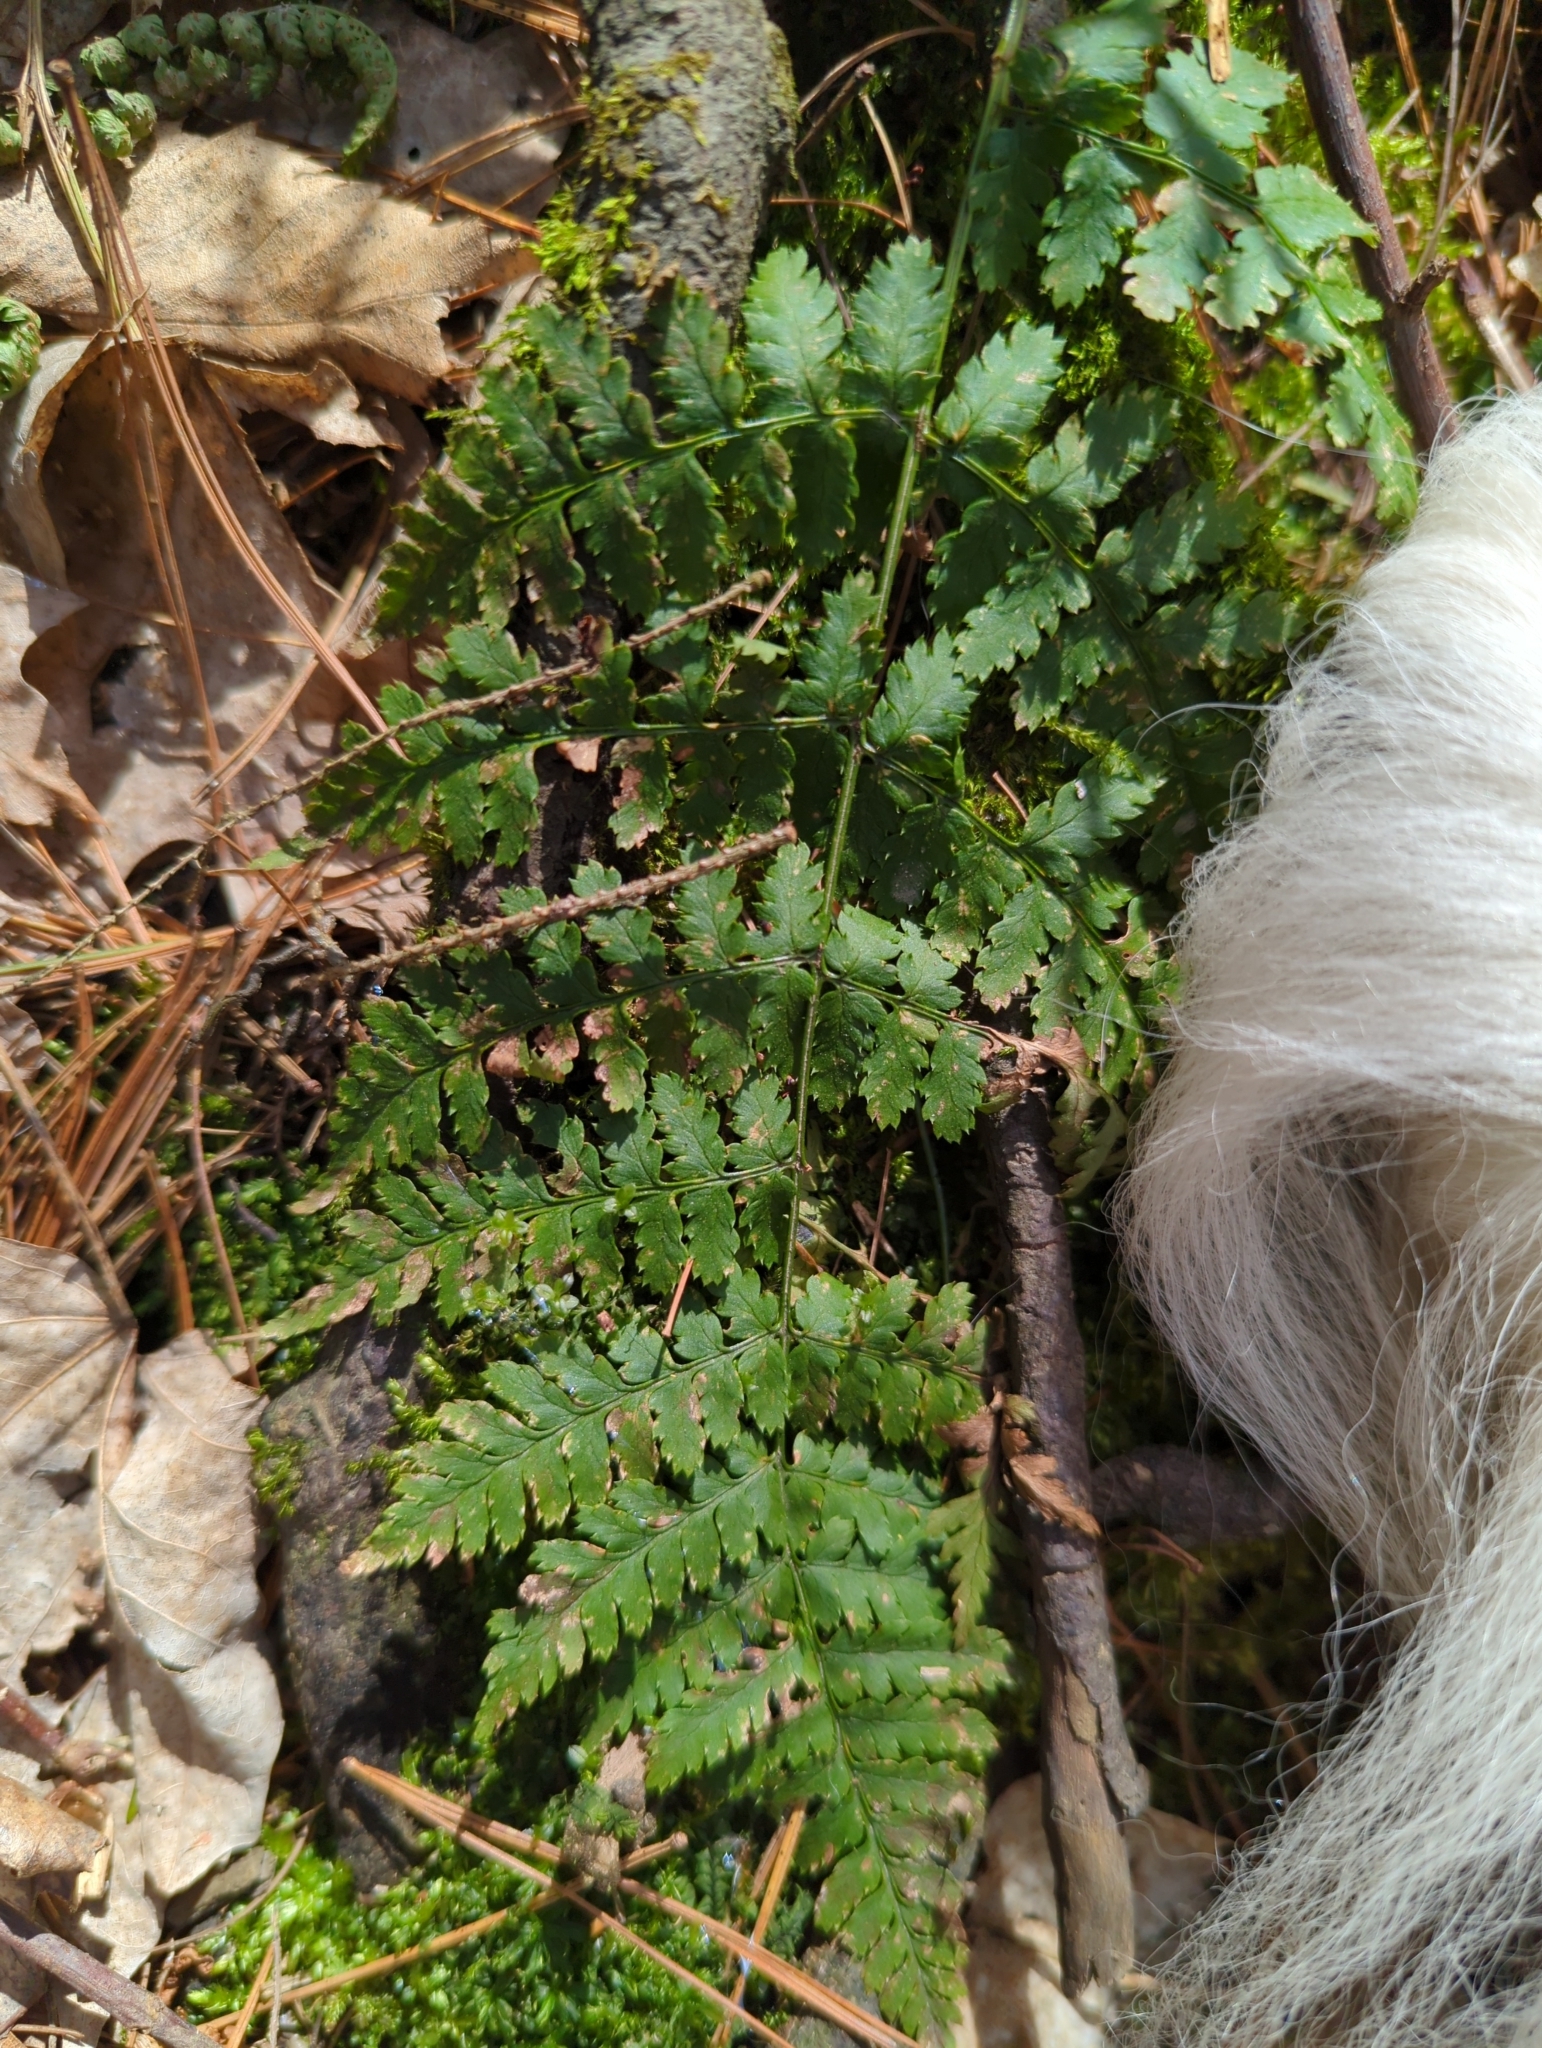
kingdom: Plantae
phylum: Tracheophyta
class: Polypodiopsida
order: Polypodiales
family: Dryopteridaceae
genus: Dryopteris
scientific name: Dryopteris intermedia
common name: Evergreen wood fern
